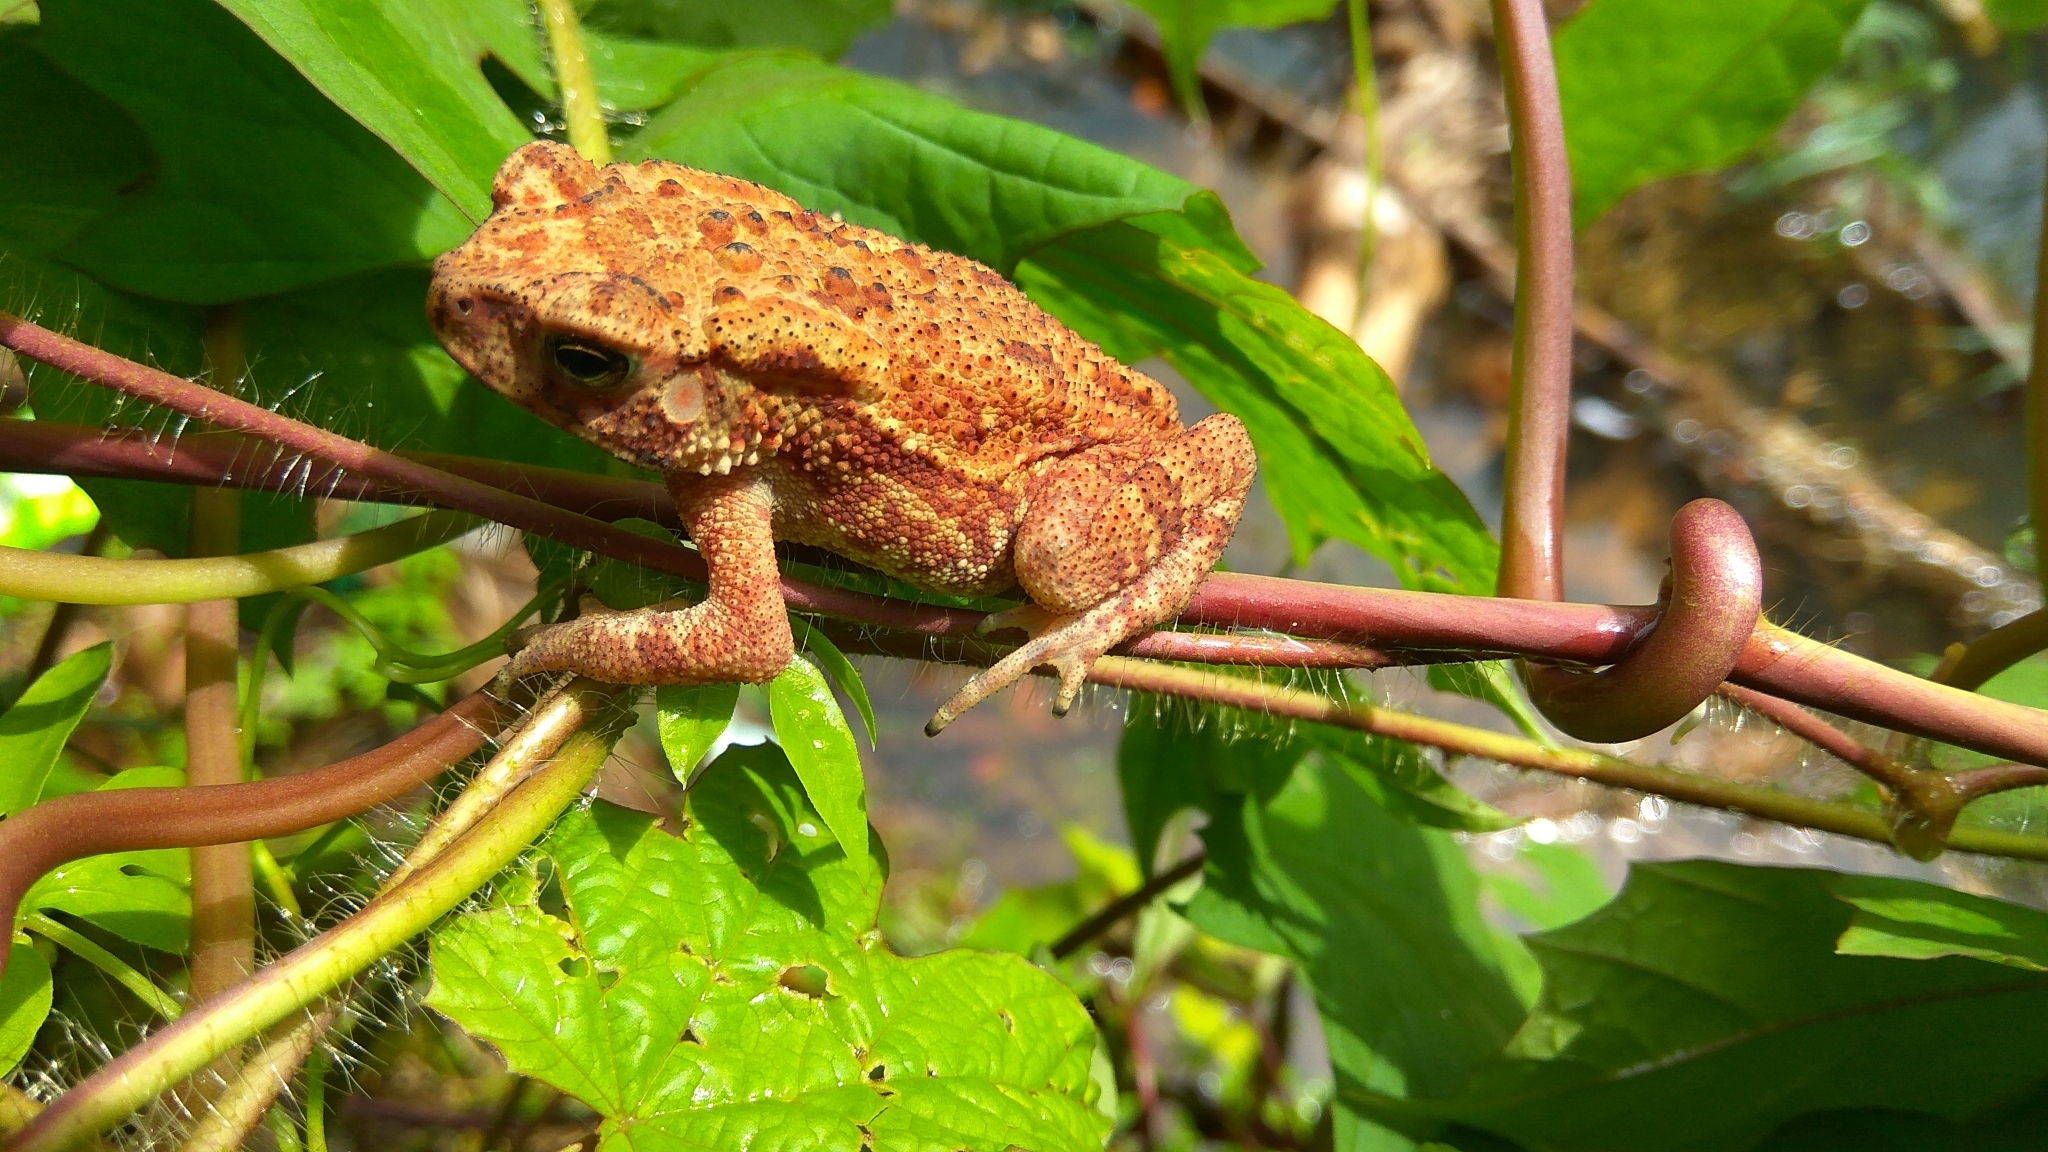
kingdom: Animalia
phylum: Chordata
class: Amphibia
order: Anura
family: Bufonidae
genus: Duttaphrynus
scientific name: Duttaphrynus melanostictus
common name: Common sunda toad
